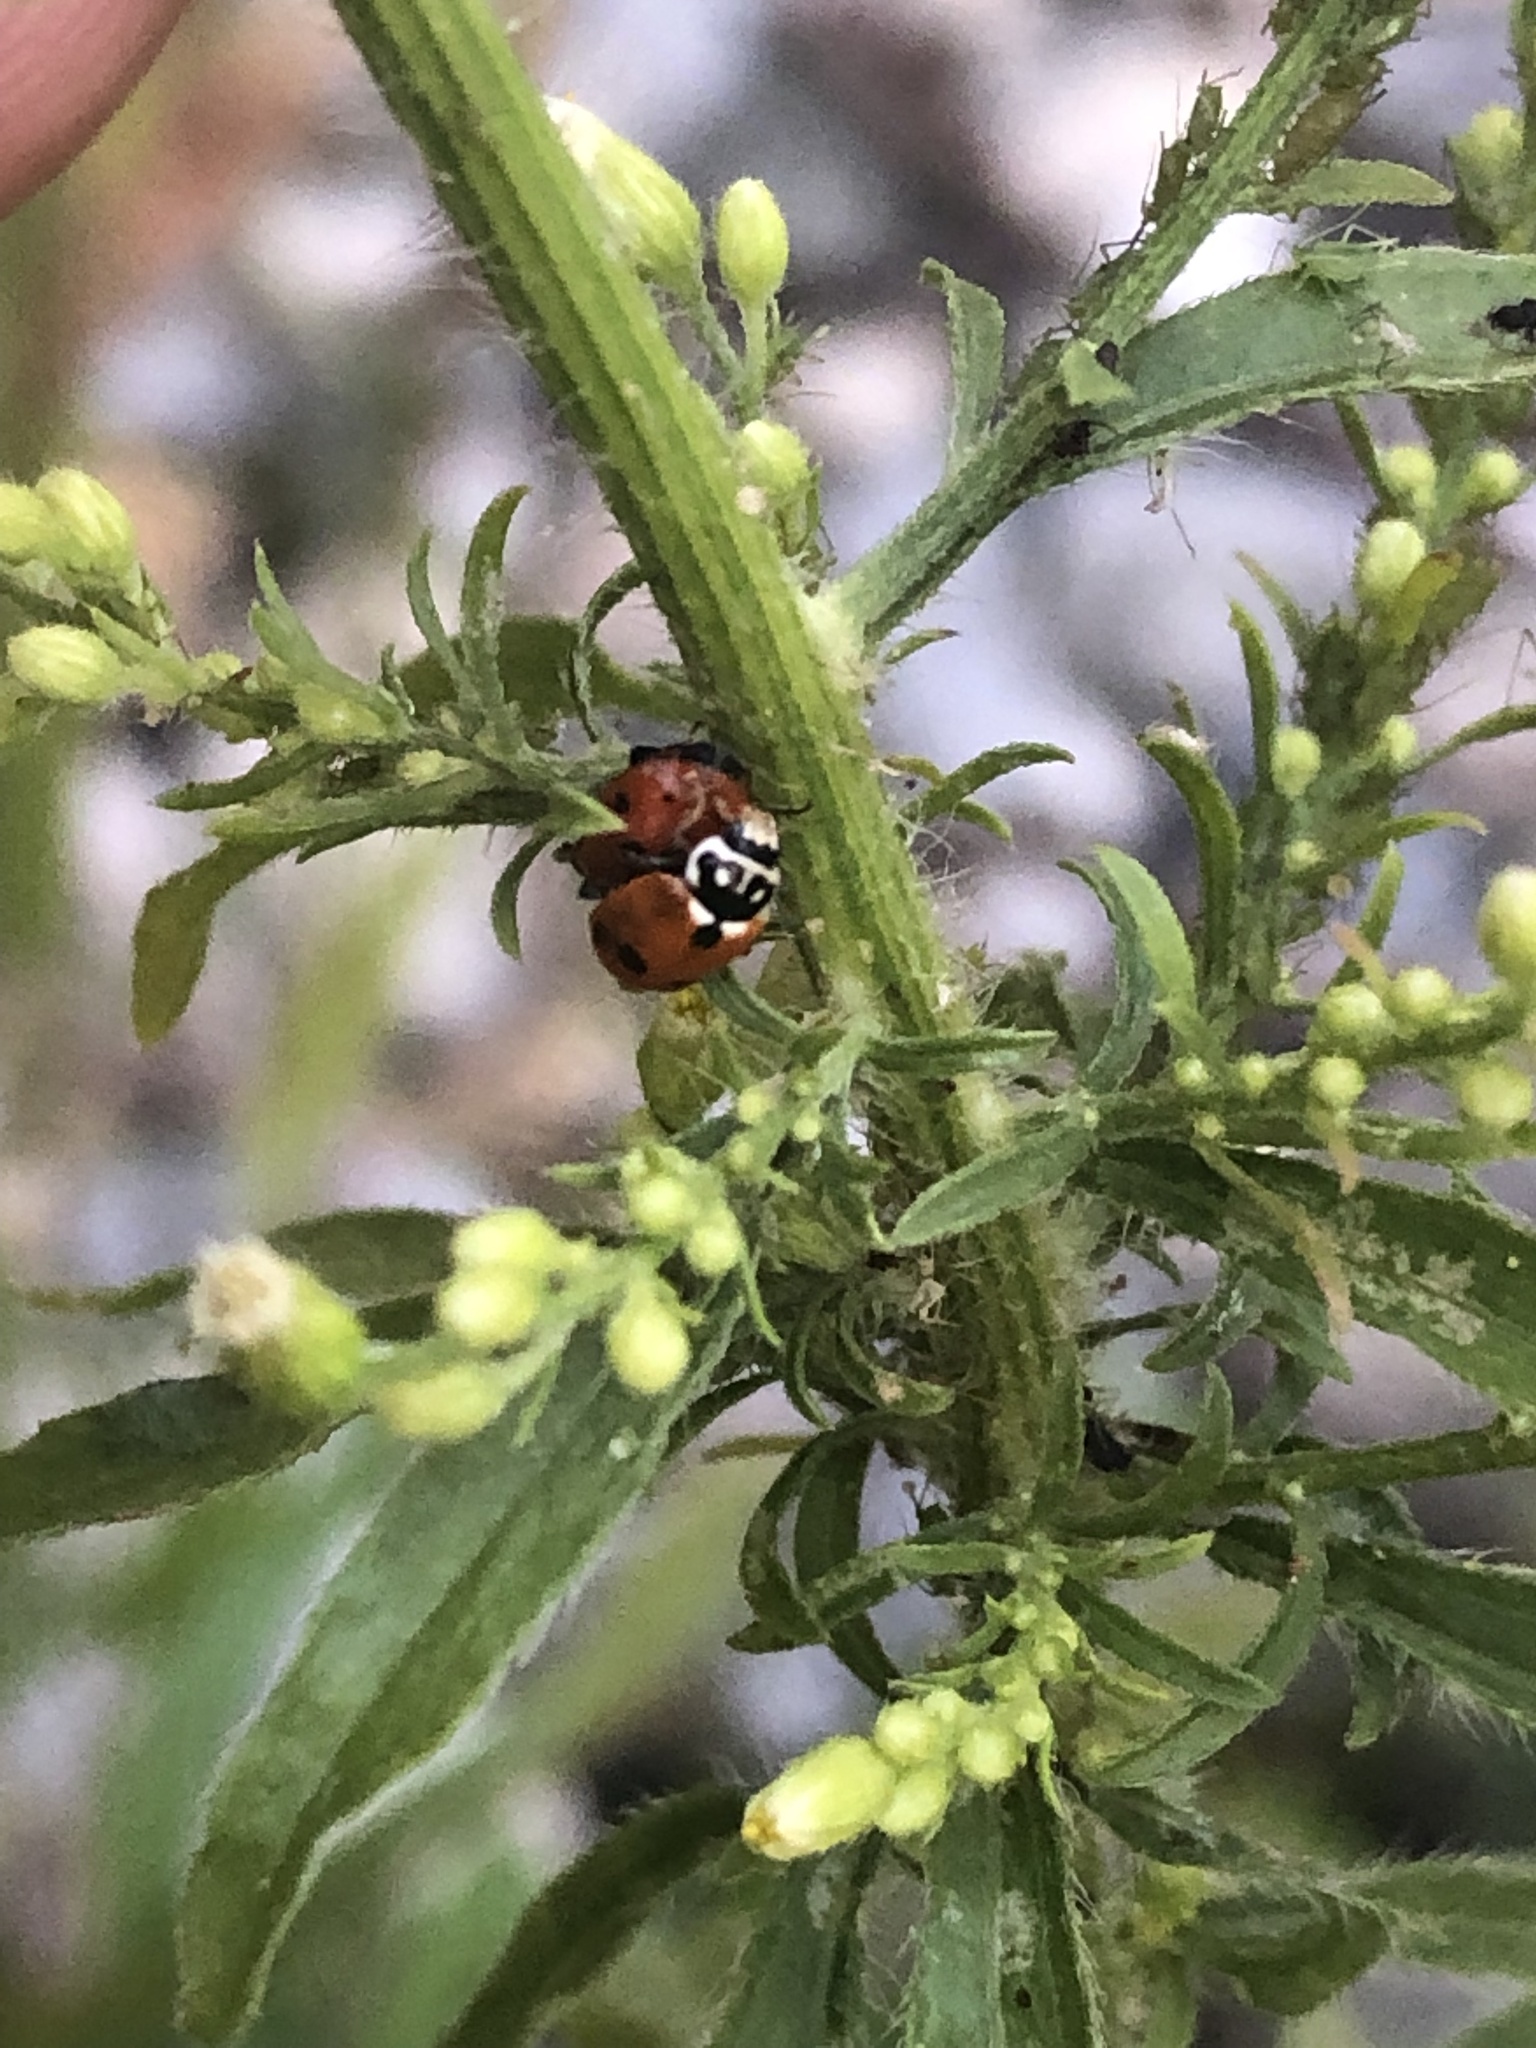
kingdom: Animalia
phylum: Arthropoda
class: Insecta
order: Coleoptera
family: Coccinellidae
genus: Hippodamia
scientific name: Hippodamia variegata
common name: Ladybird beetle
